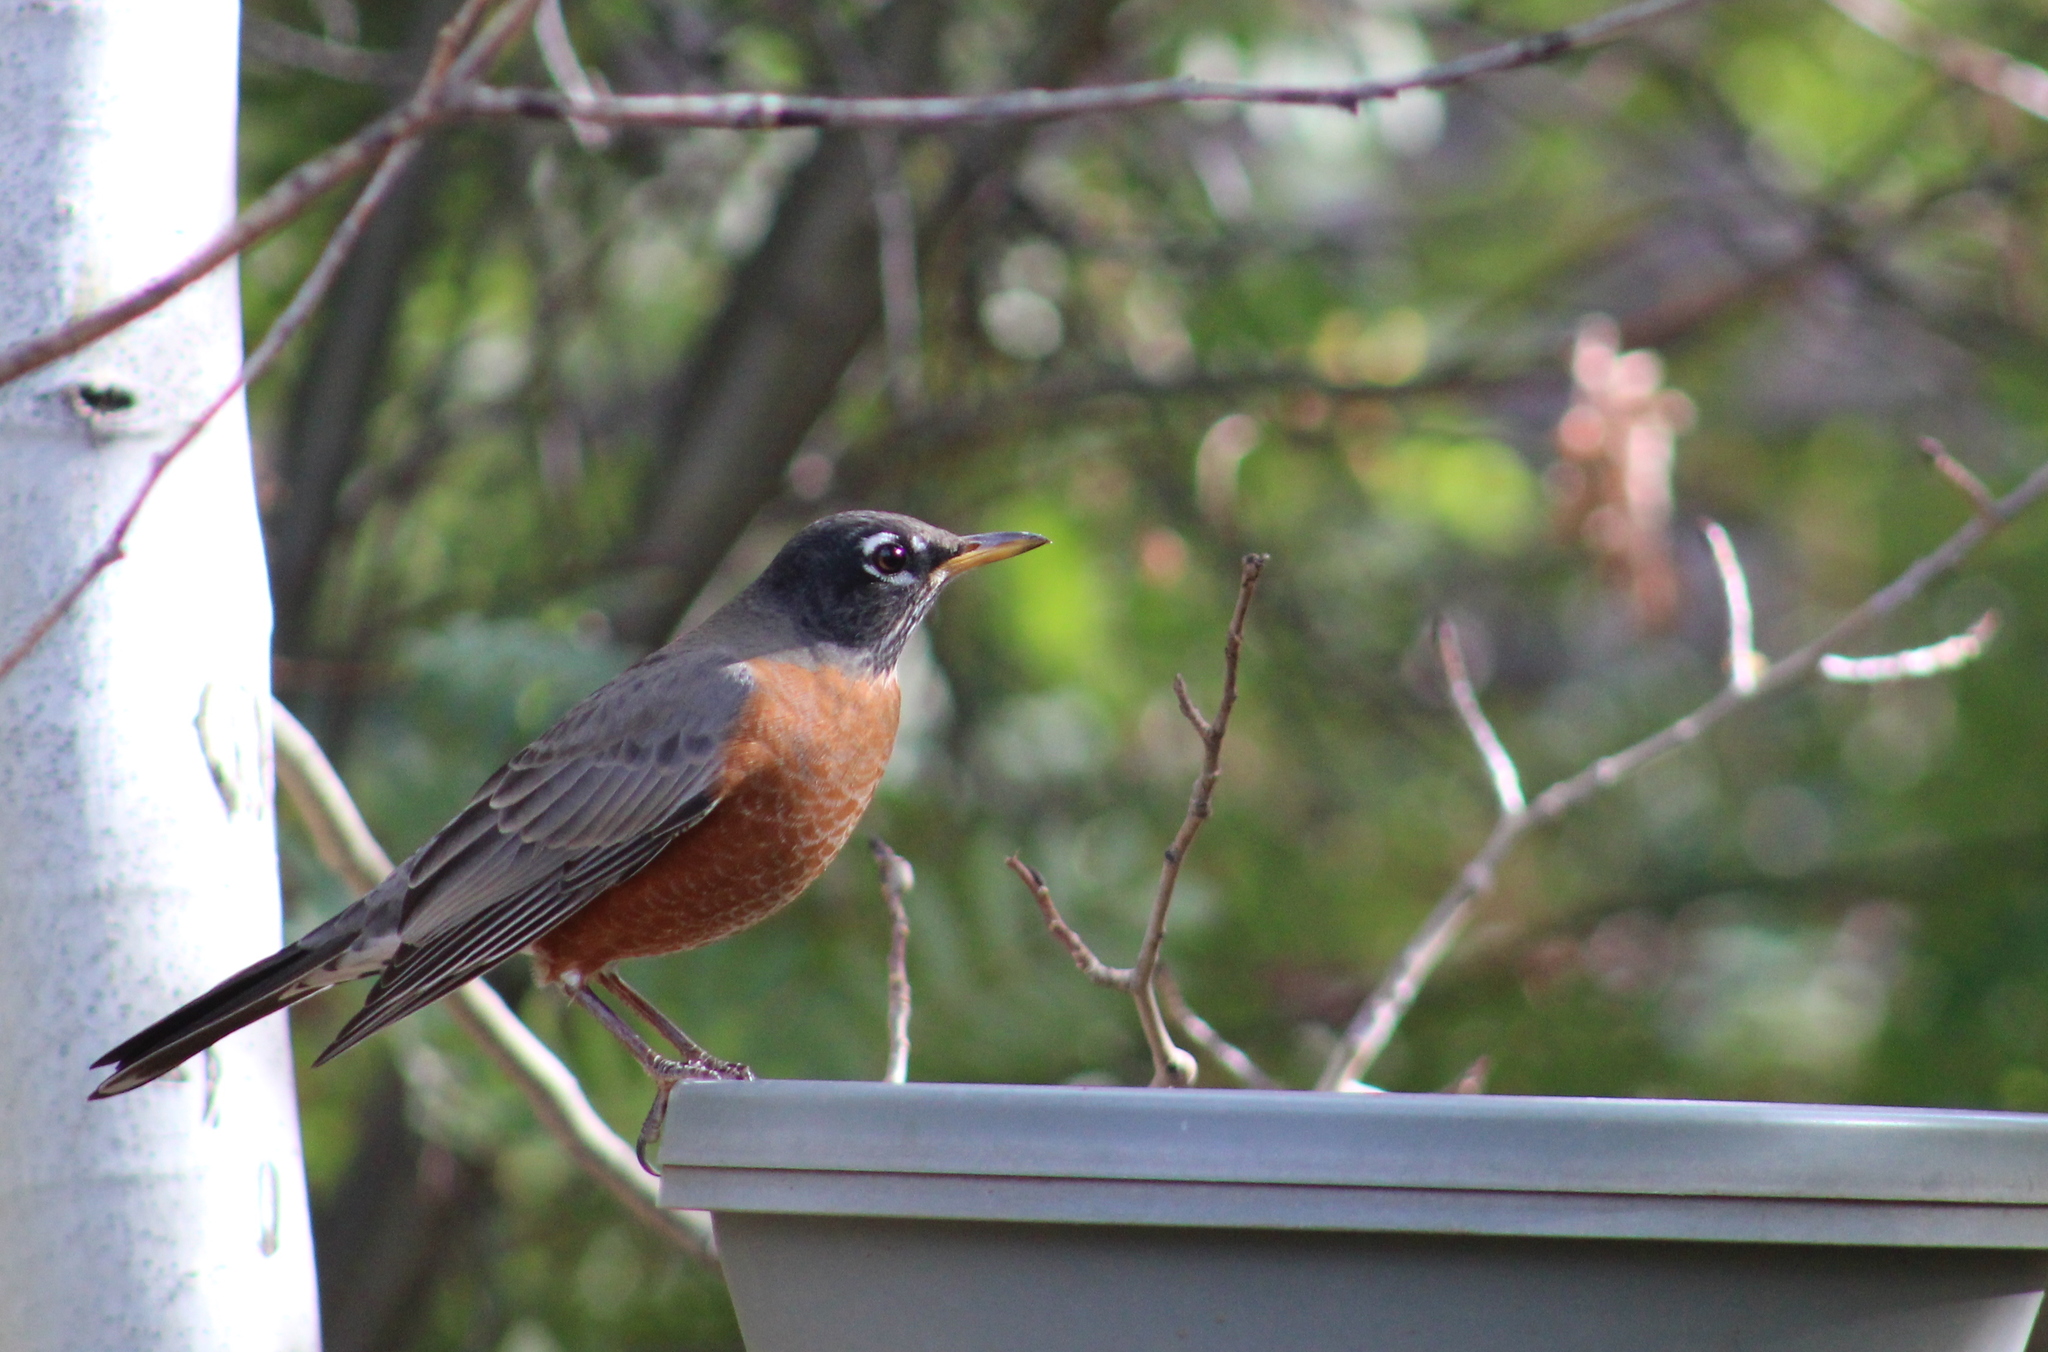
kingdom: Animalia
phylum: Chordata
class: Aves
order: Passeriformes
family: Turdidae
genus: Turdus
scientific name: Turdus migratorius
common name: American robin
